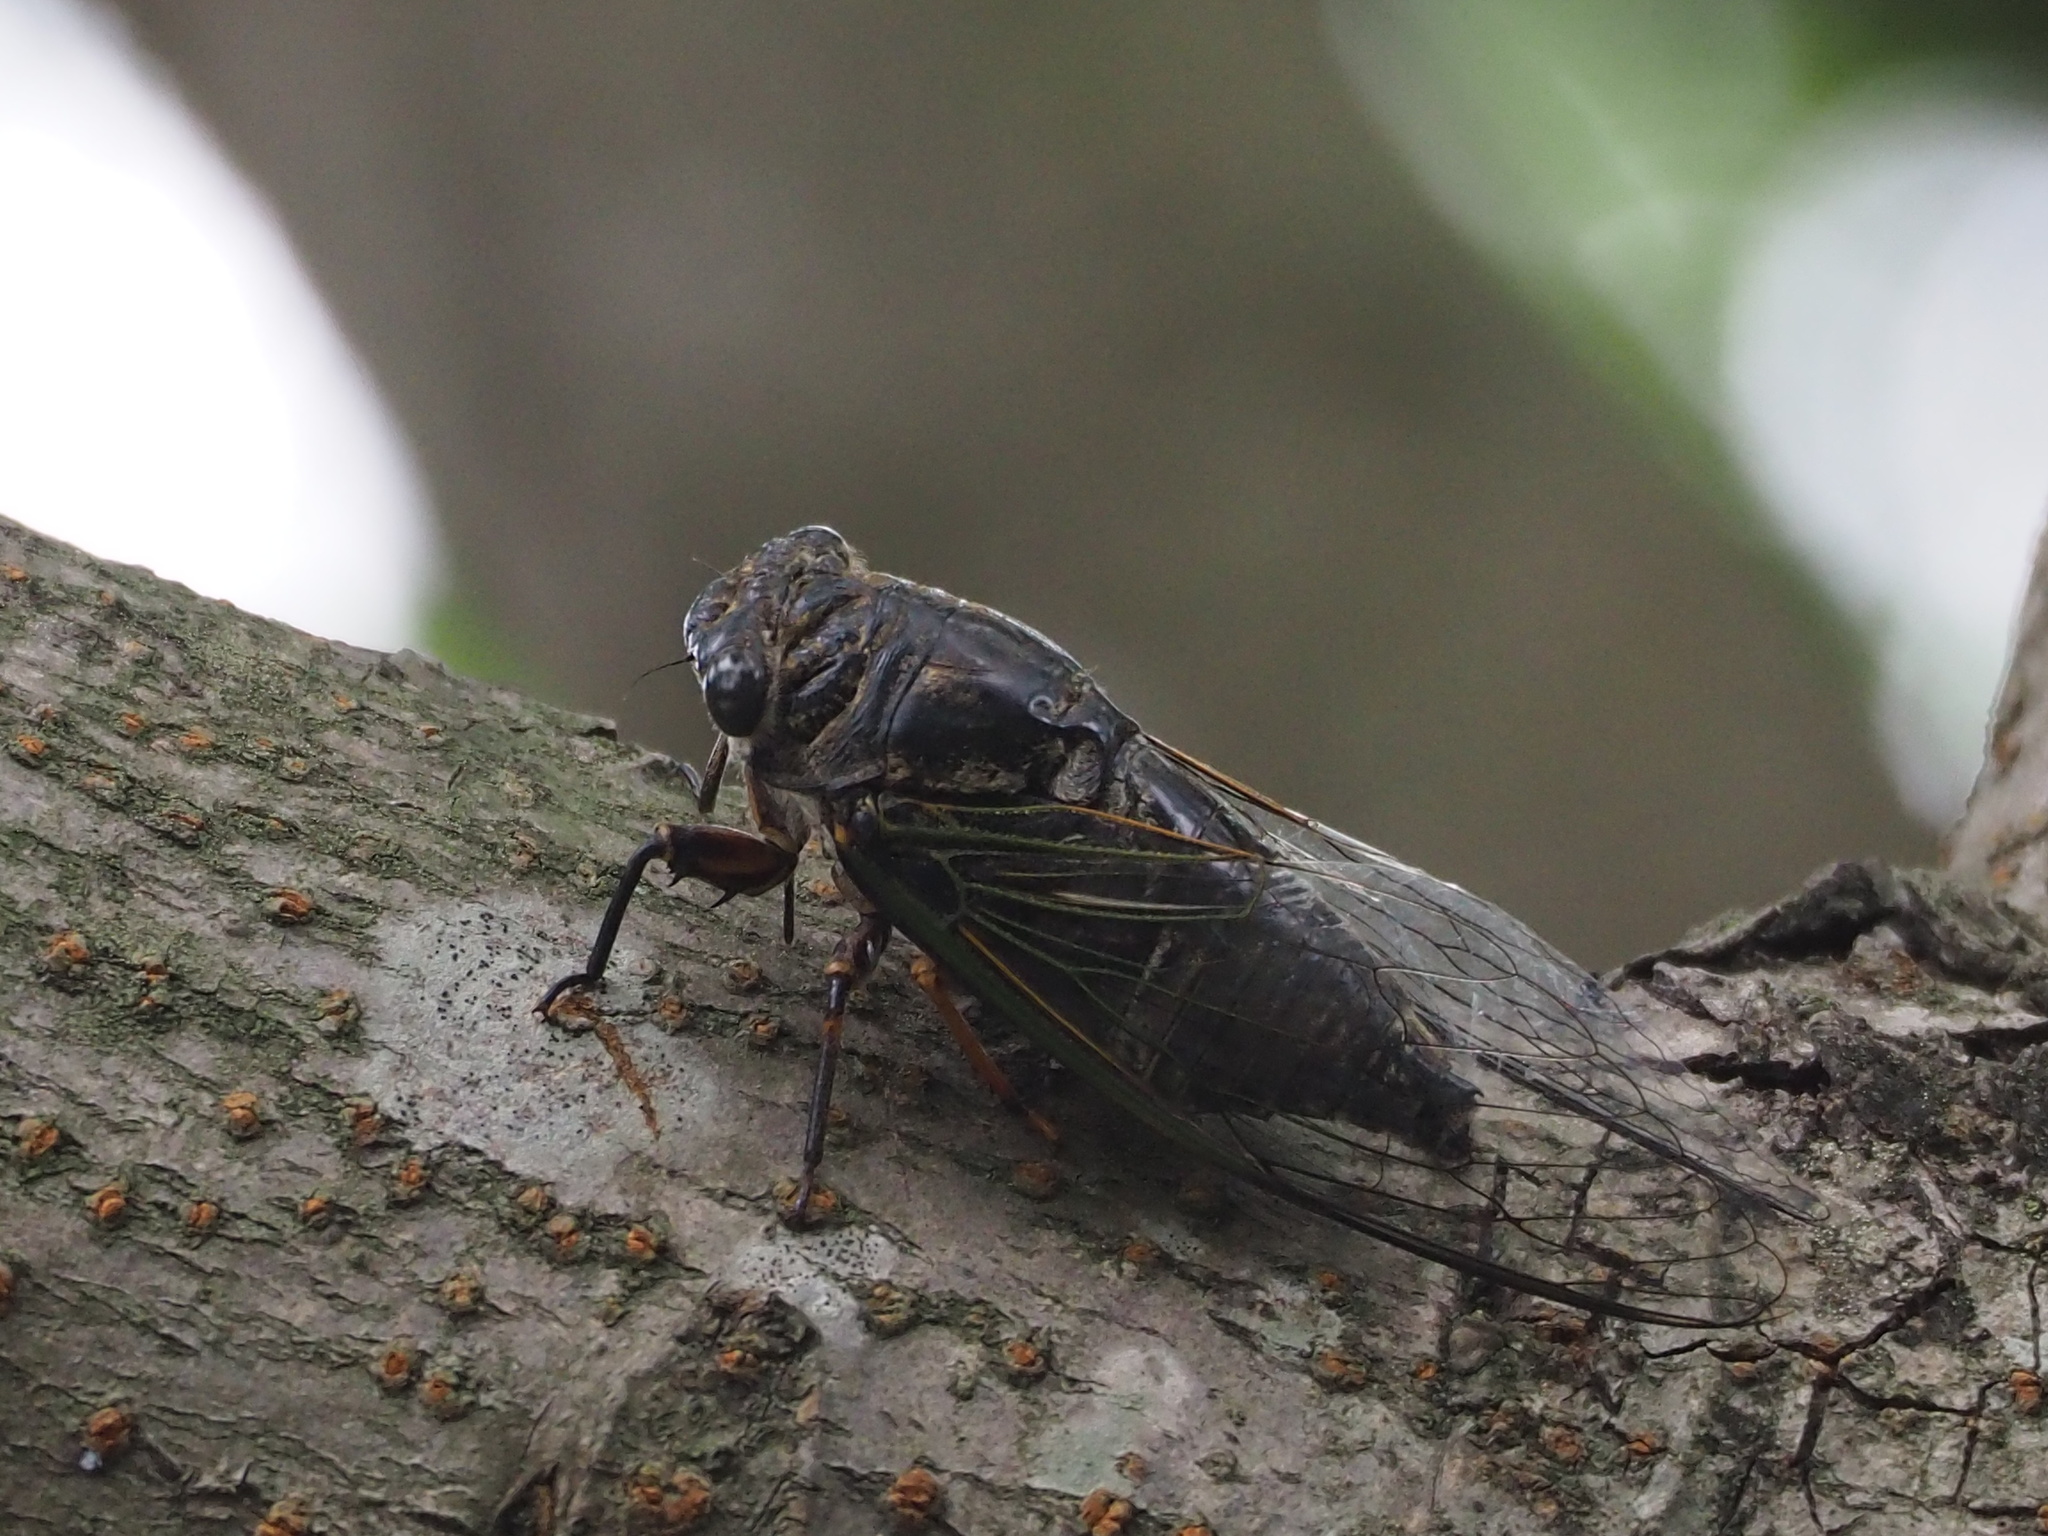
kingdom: Animalia
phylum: Arthropoda
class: Insecta
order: Hemiptera
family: Cicadidae
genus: Cryptotympana
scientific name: Cryptotympana takasagona
